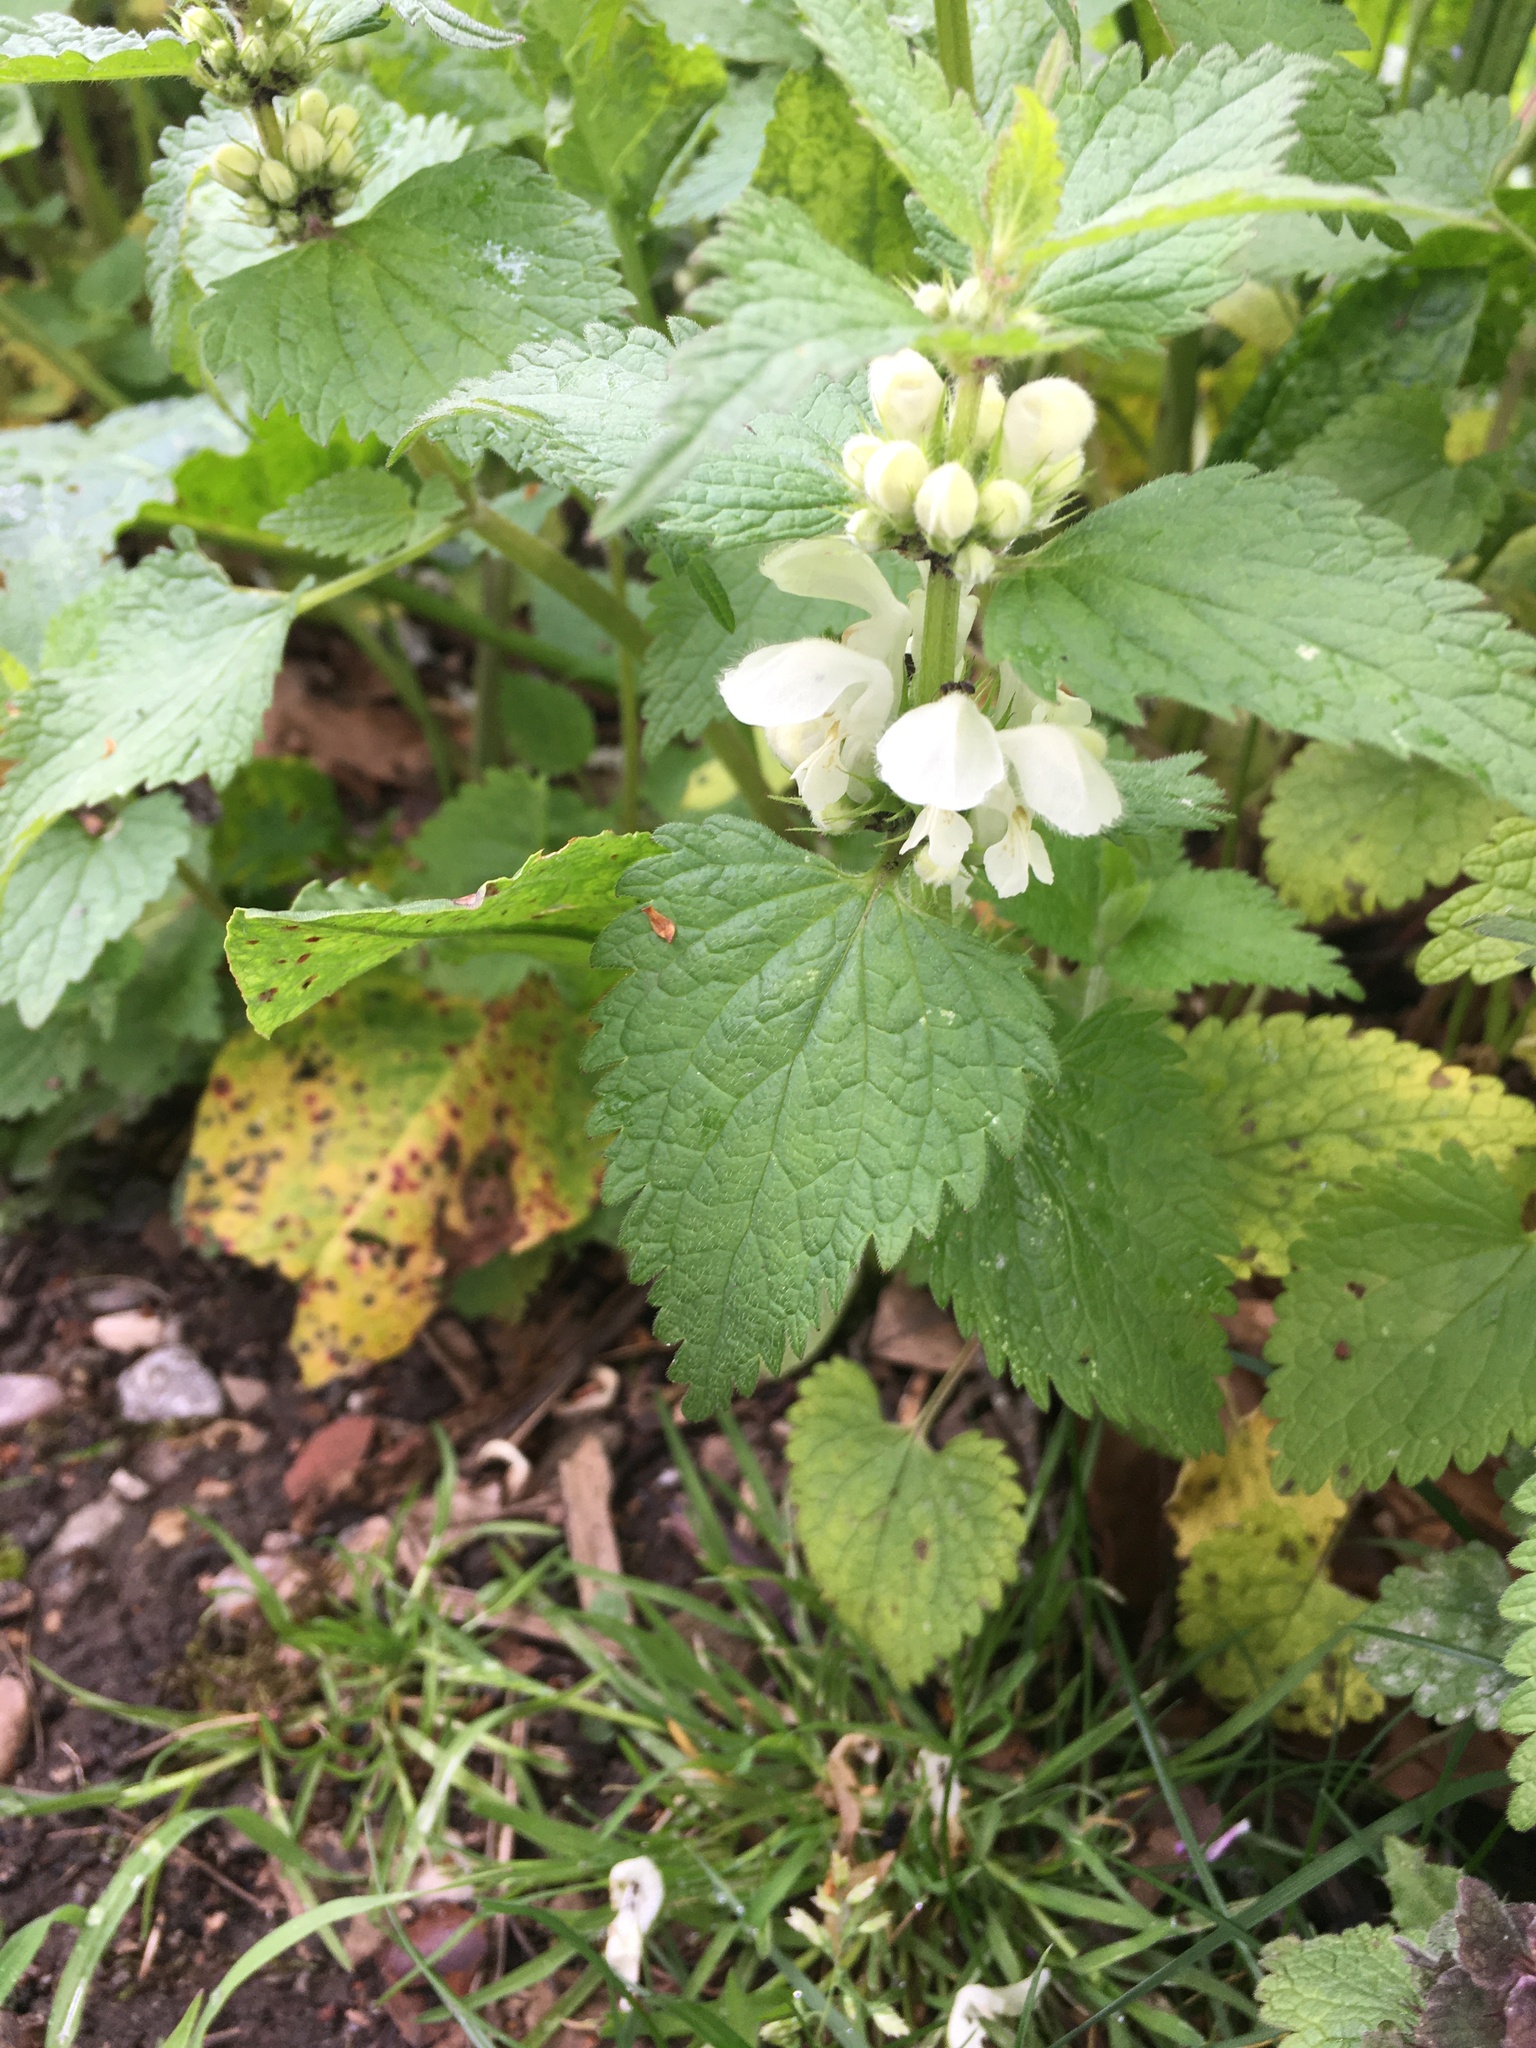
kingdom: Plantae
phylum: Tracheophyta
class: Magnoliopsida
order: Lamiales
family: Lamiaceae
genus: Lamium
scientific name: Lamium album
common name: White dead-nettle
